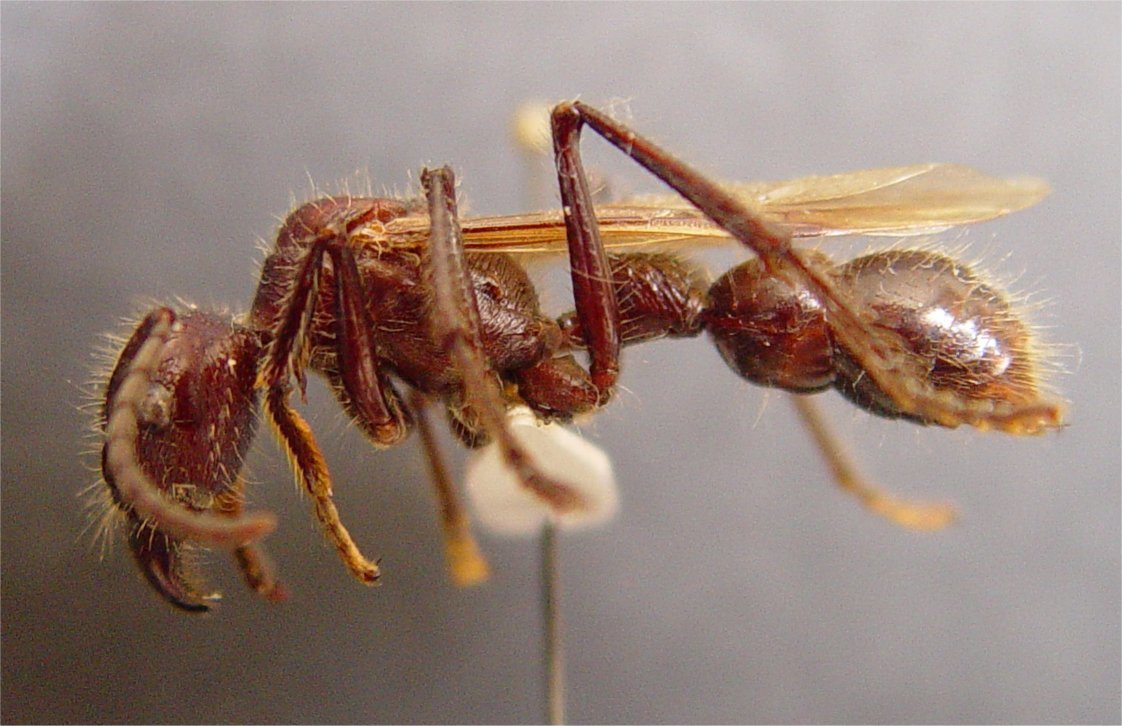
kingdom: Animalia
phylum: Arthropoda
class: Insecta
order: Hymenoptera
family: Formicidae
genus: Paraponera
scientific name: Paraponera clavata
